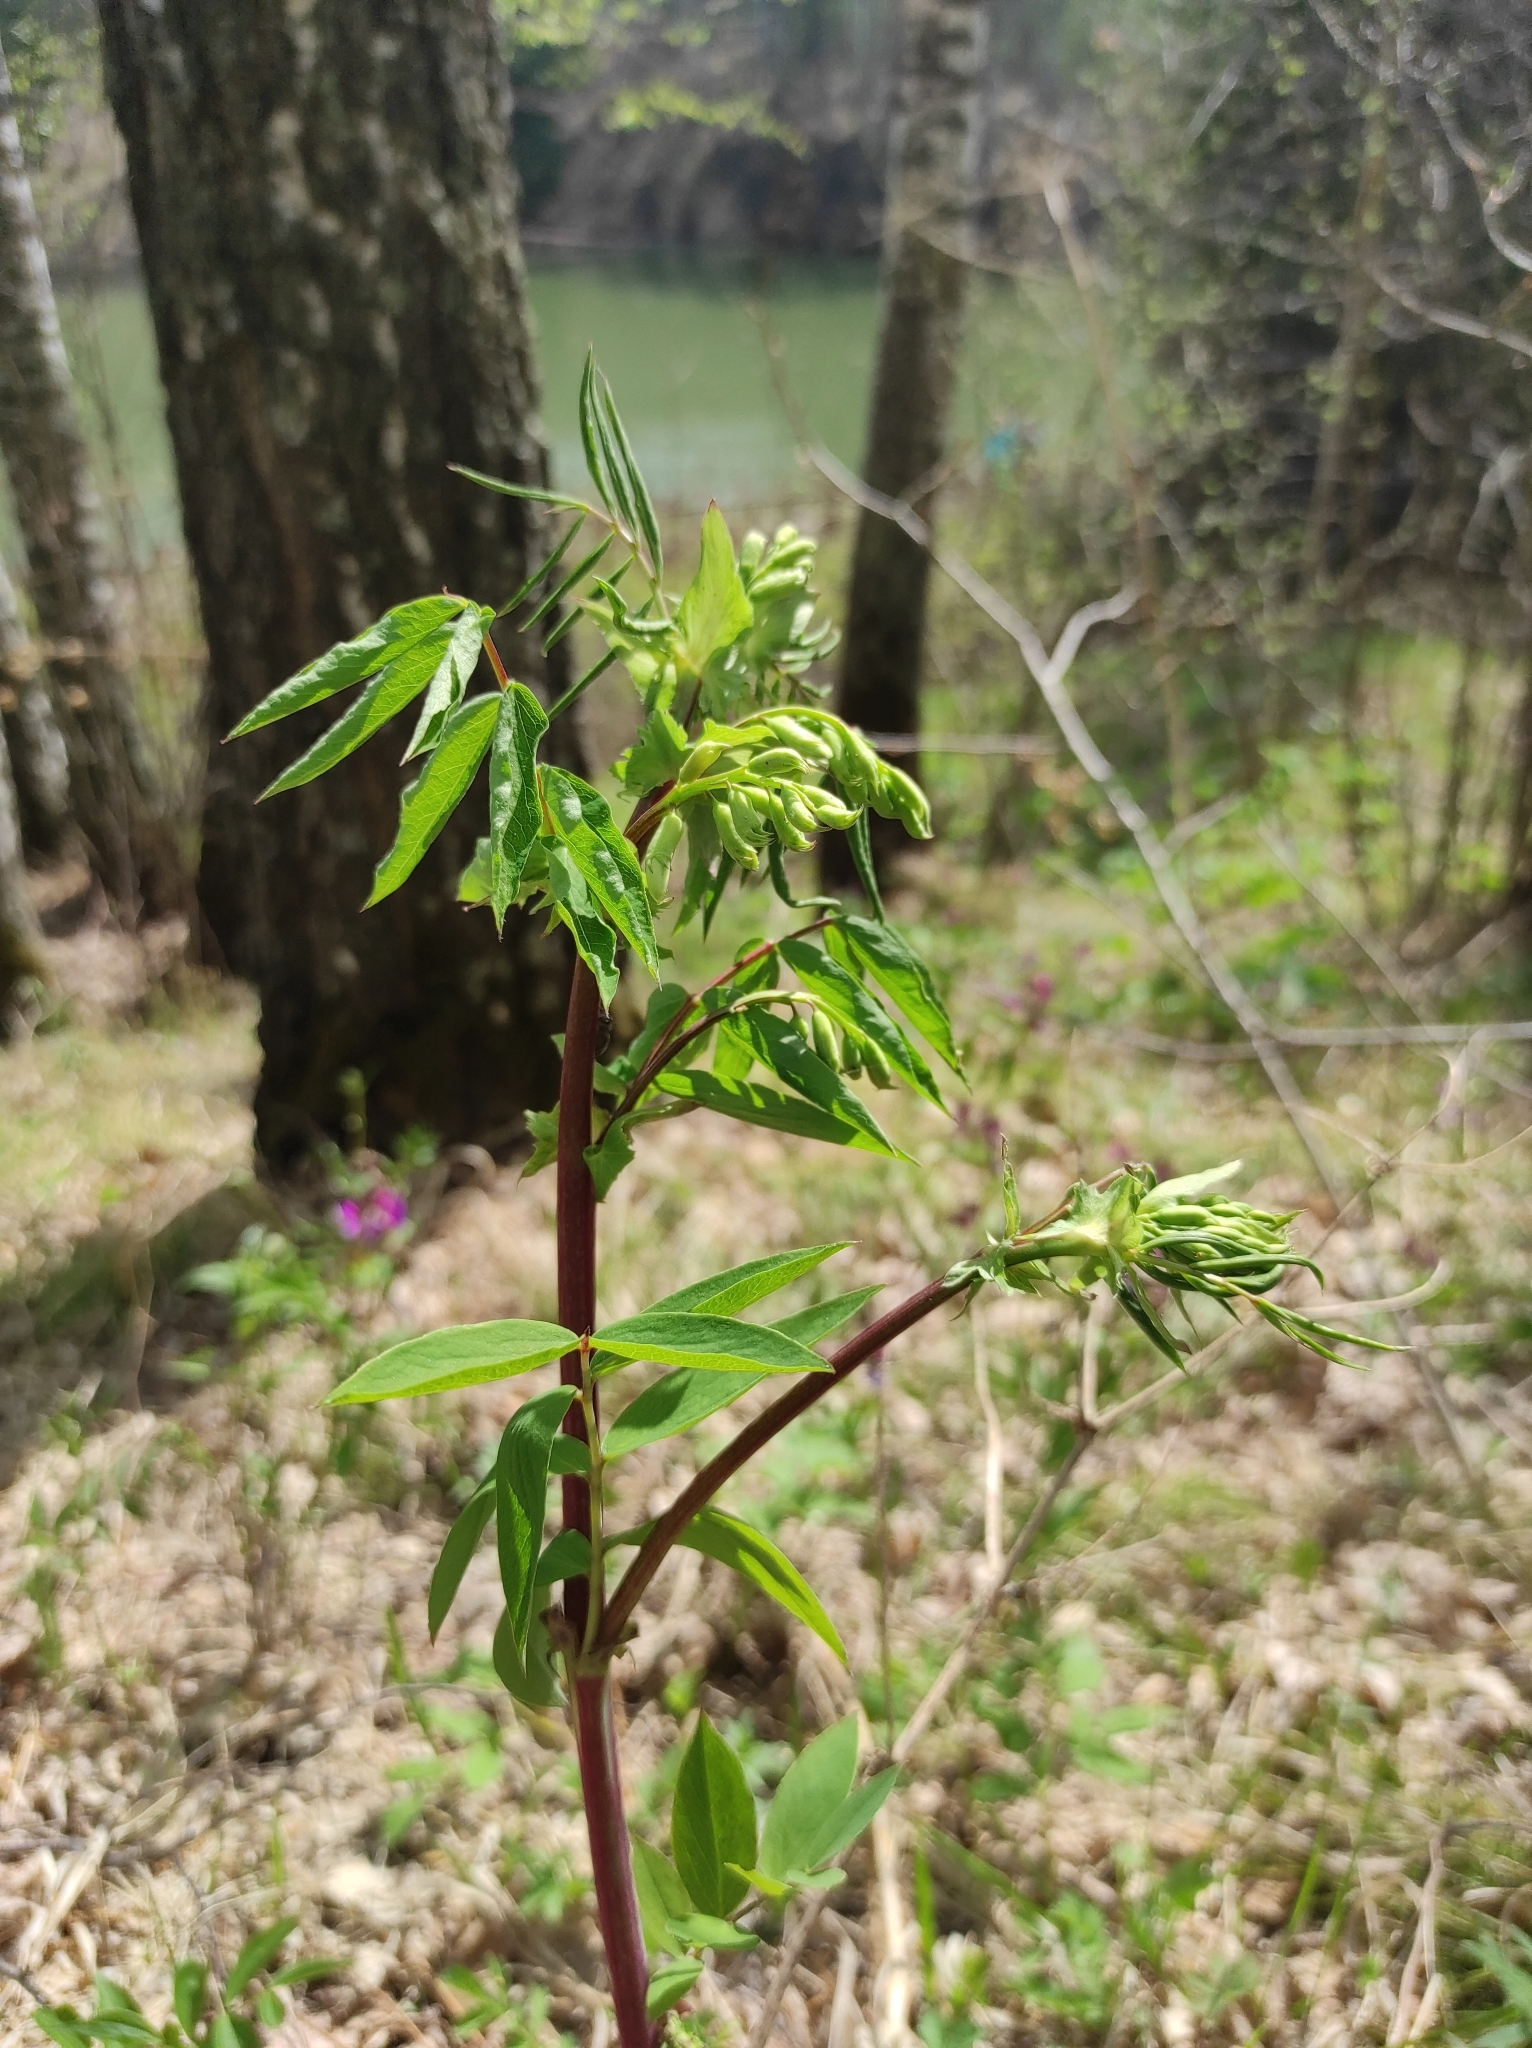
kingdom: Plantae
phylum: Tracheophyta
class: Magnoliopsida
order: Fabales
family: Fabaceae
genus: Lathyrus
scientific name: Lathyrus gmelinii
